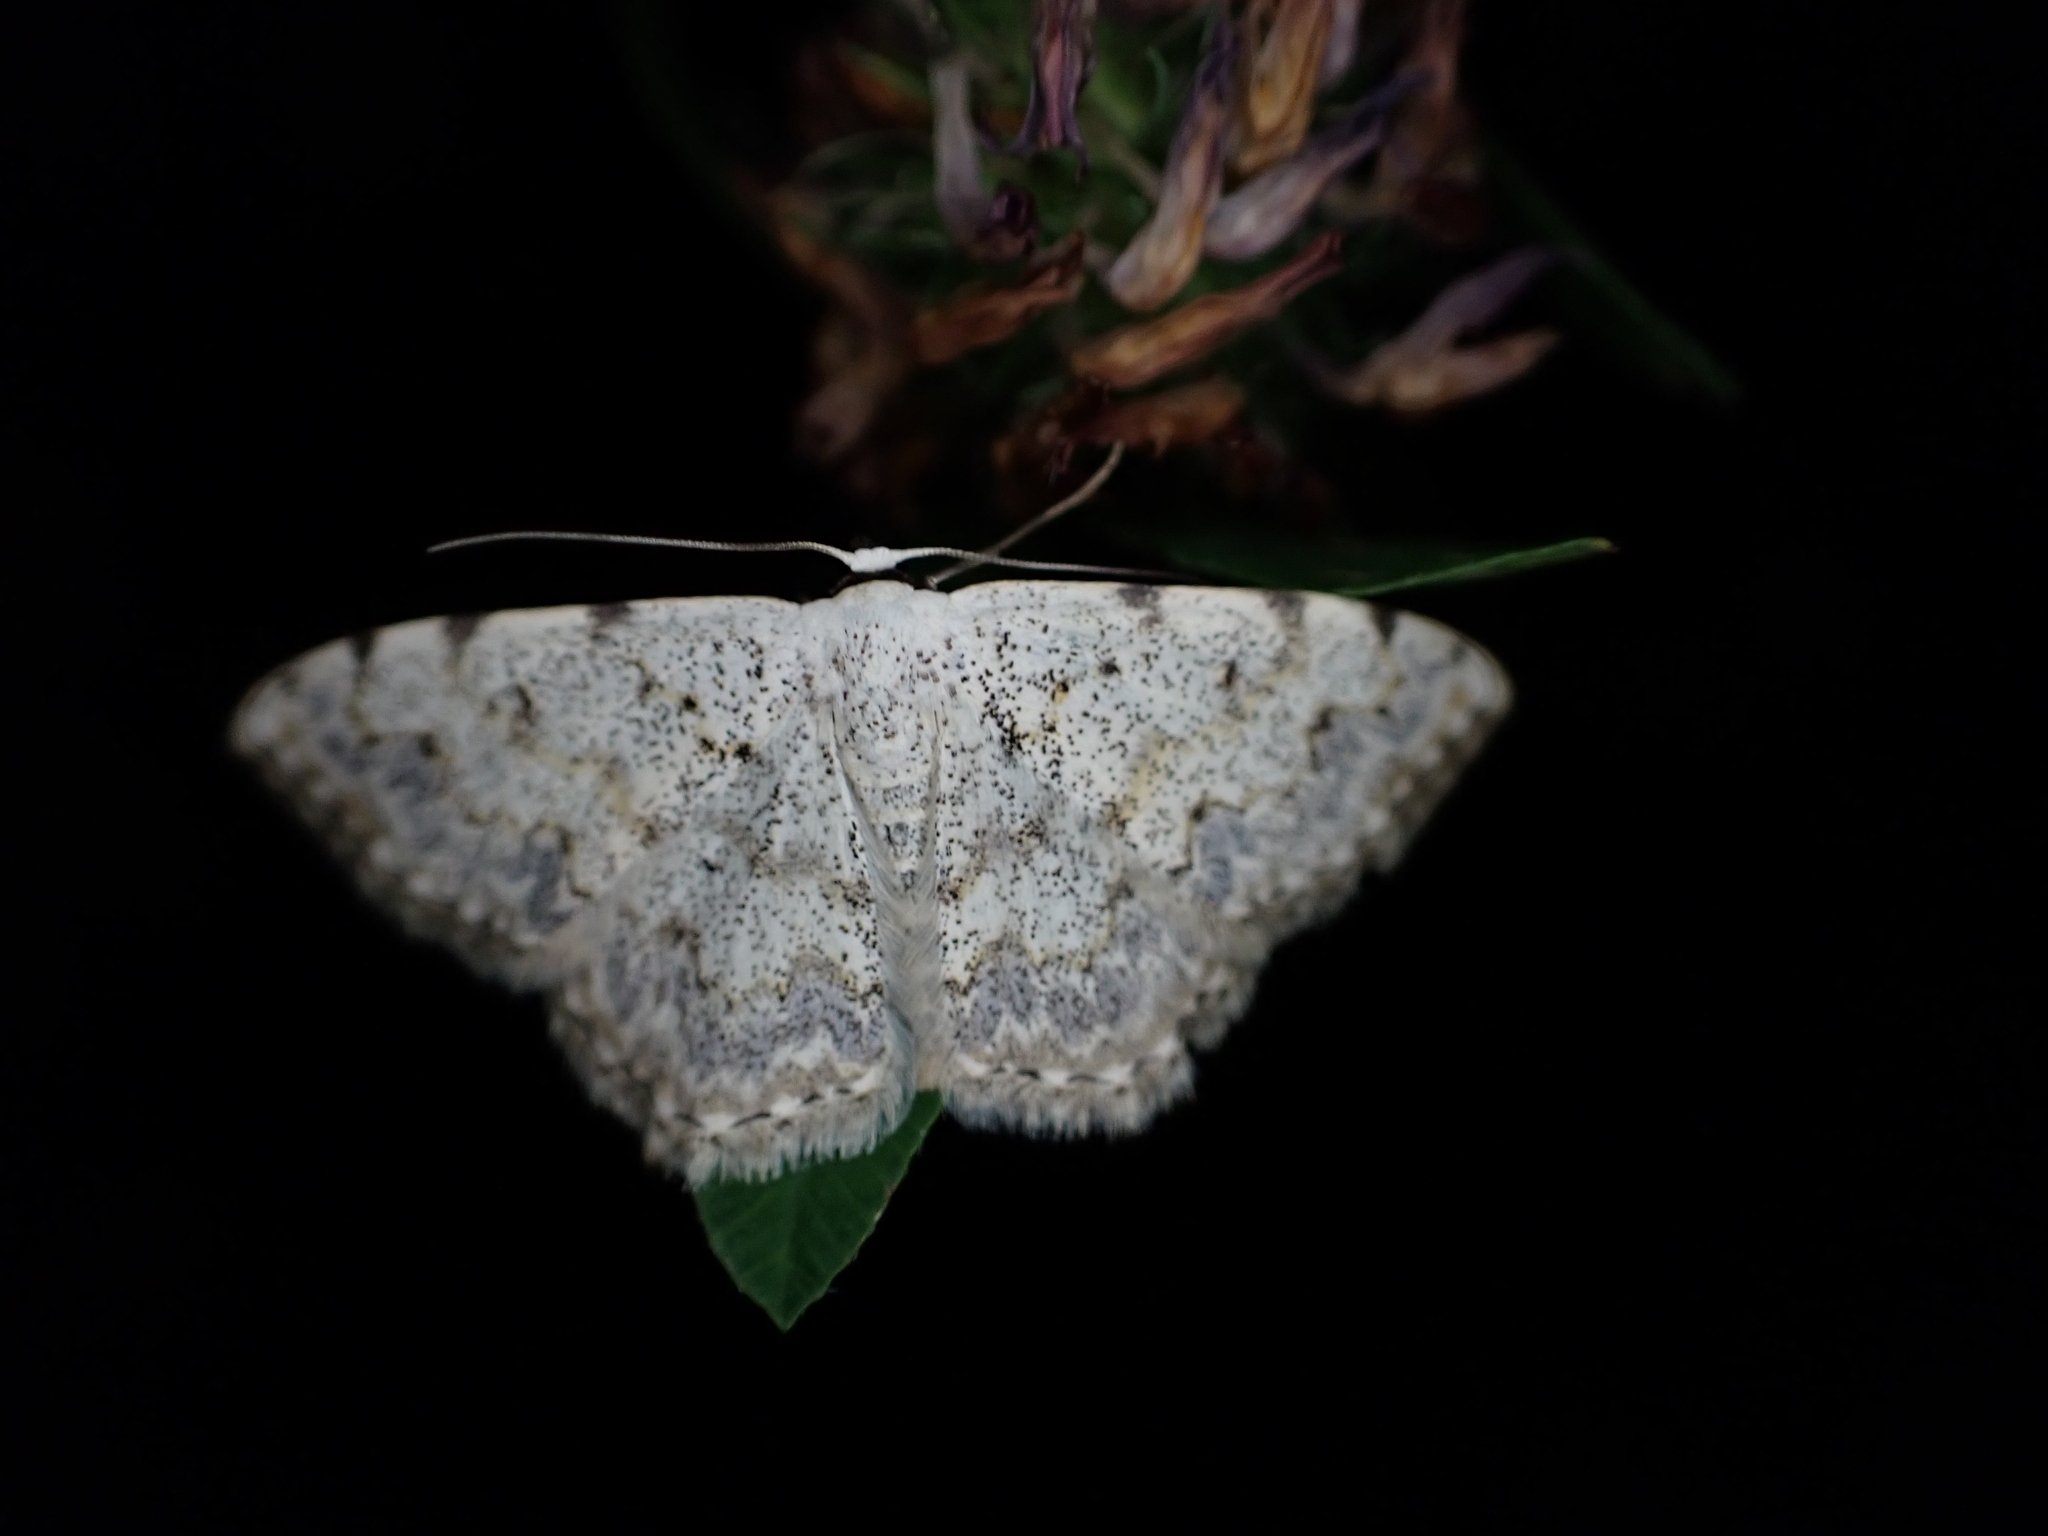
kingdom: Animalia
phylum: Arthropoda
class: Insecta
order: Lepidoptera
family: Geometridae
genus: Scopula
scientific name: Scopula submutata
